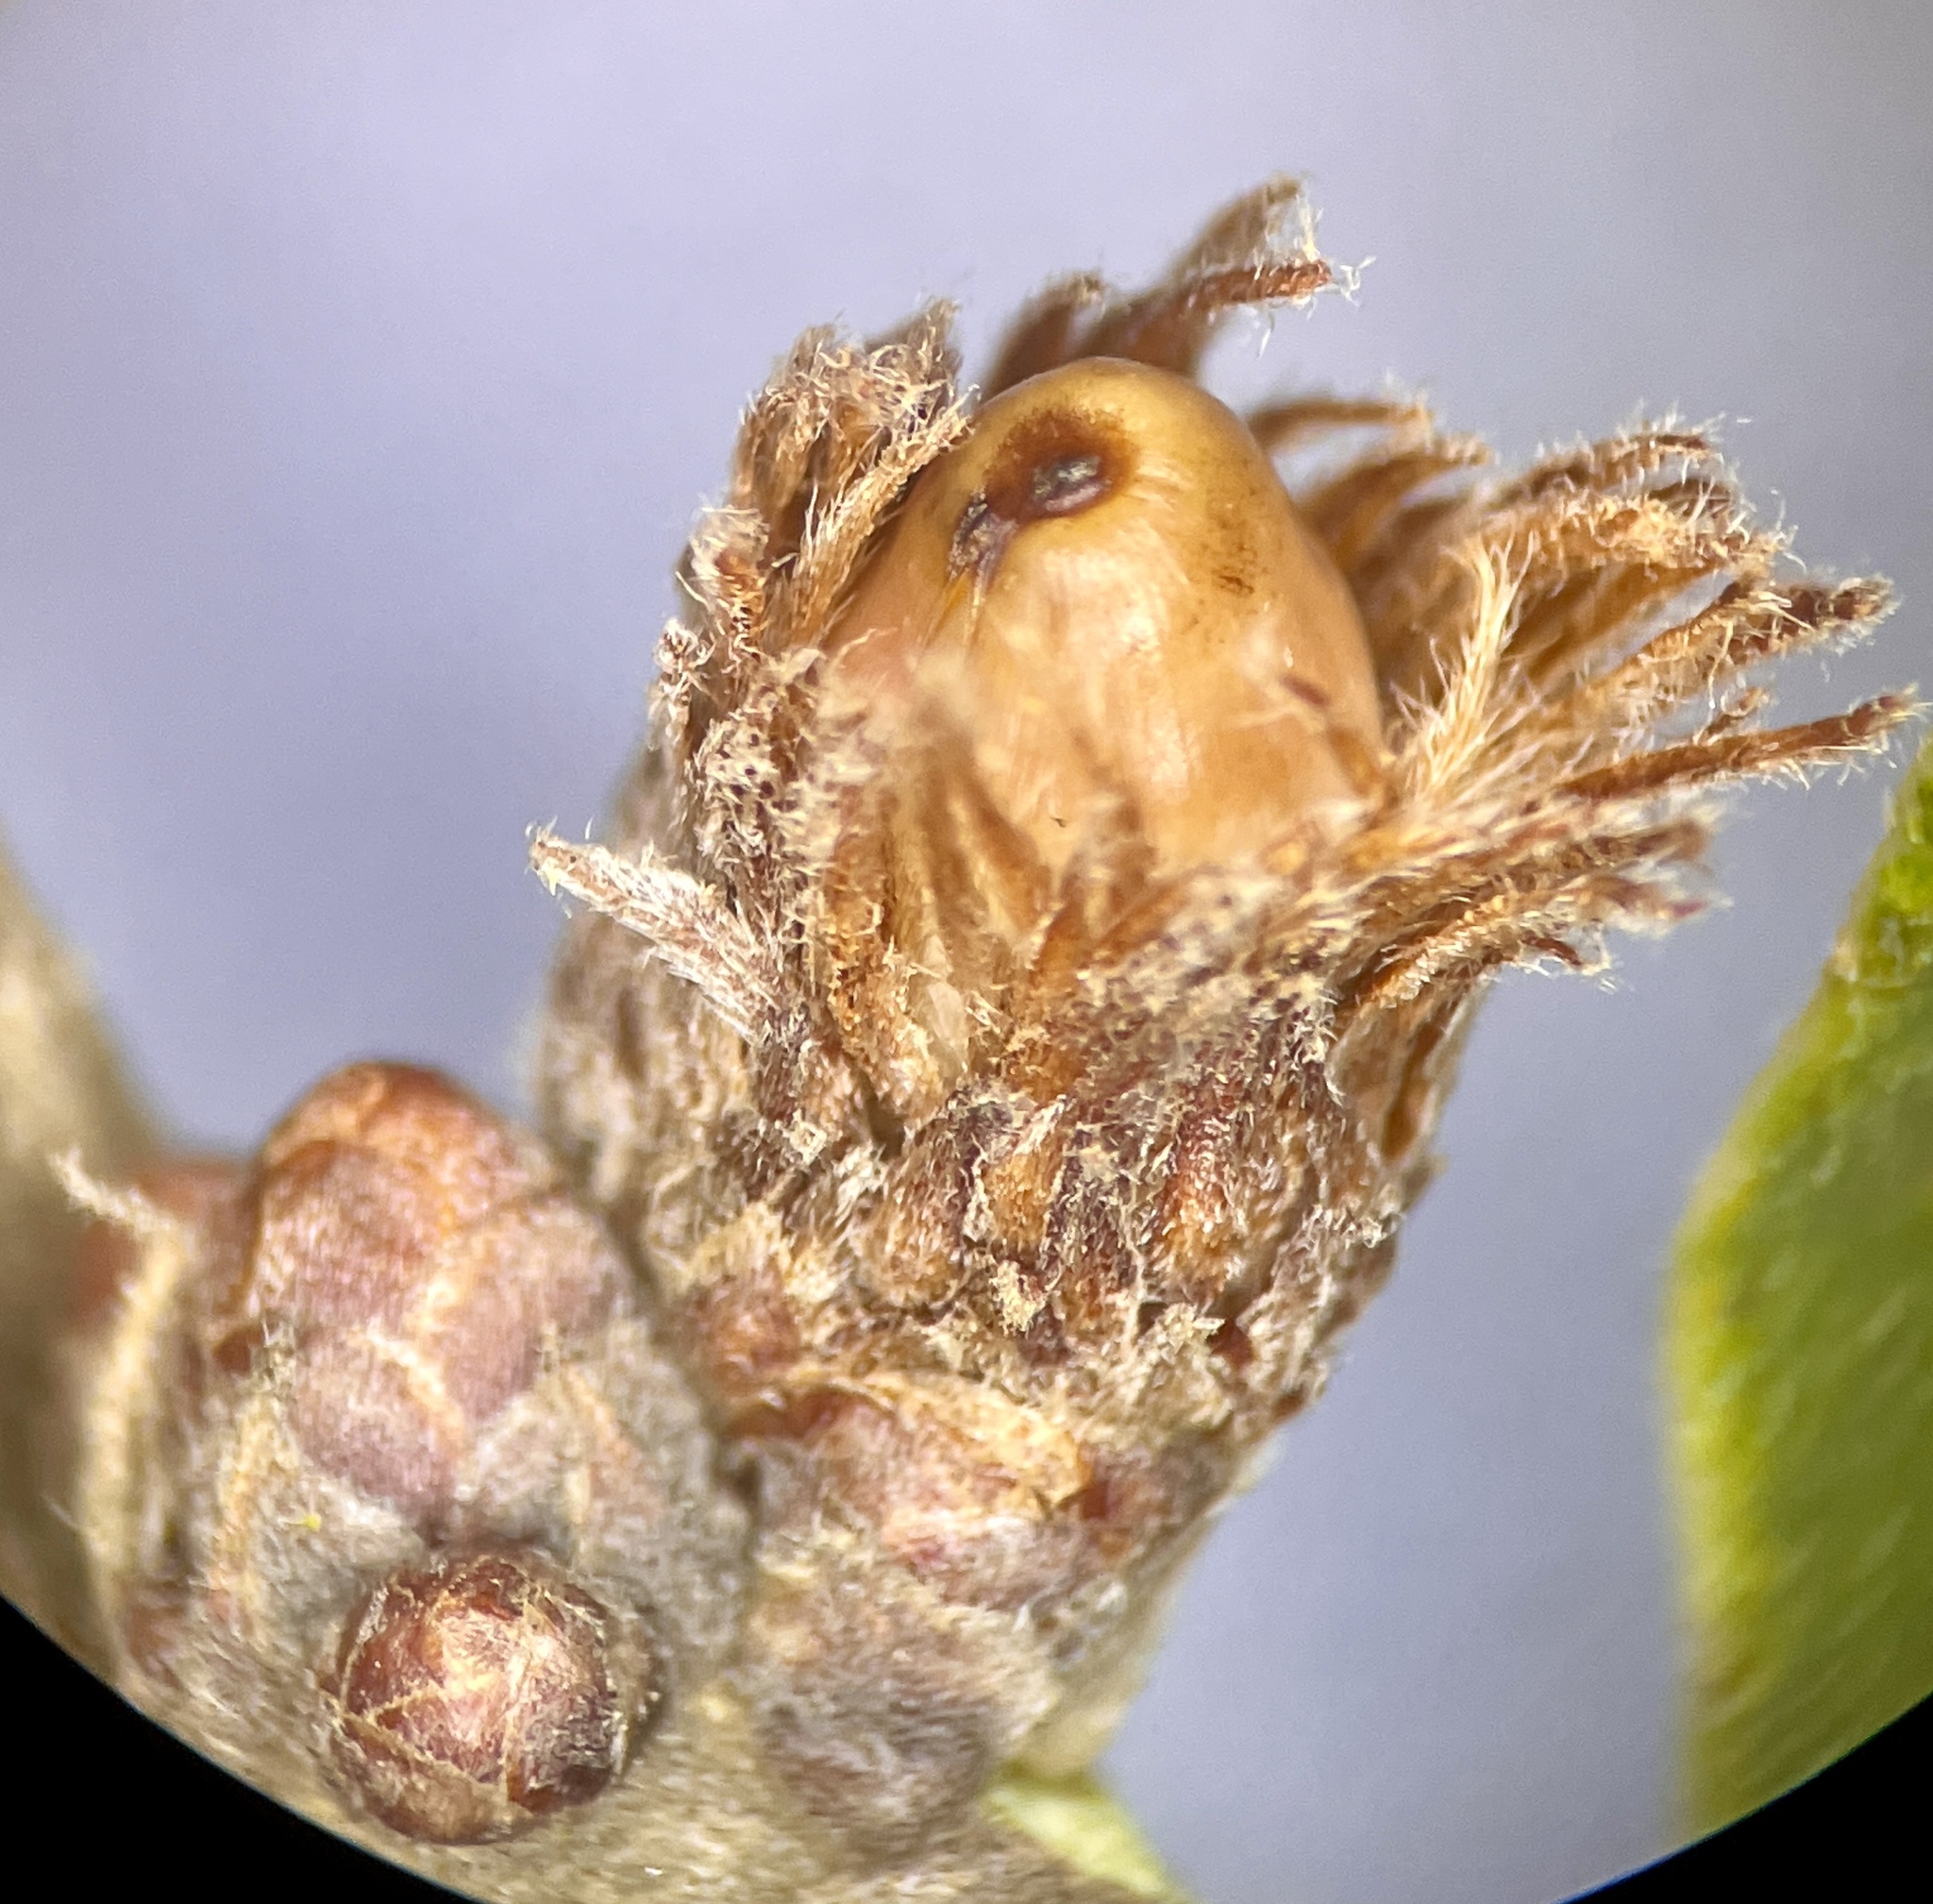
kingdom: Animalia
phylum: Arthropoda
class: Insecta
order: Hymenoptera
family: Cynipidae
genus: Andricus
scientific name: Andricus
